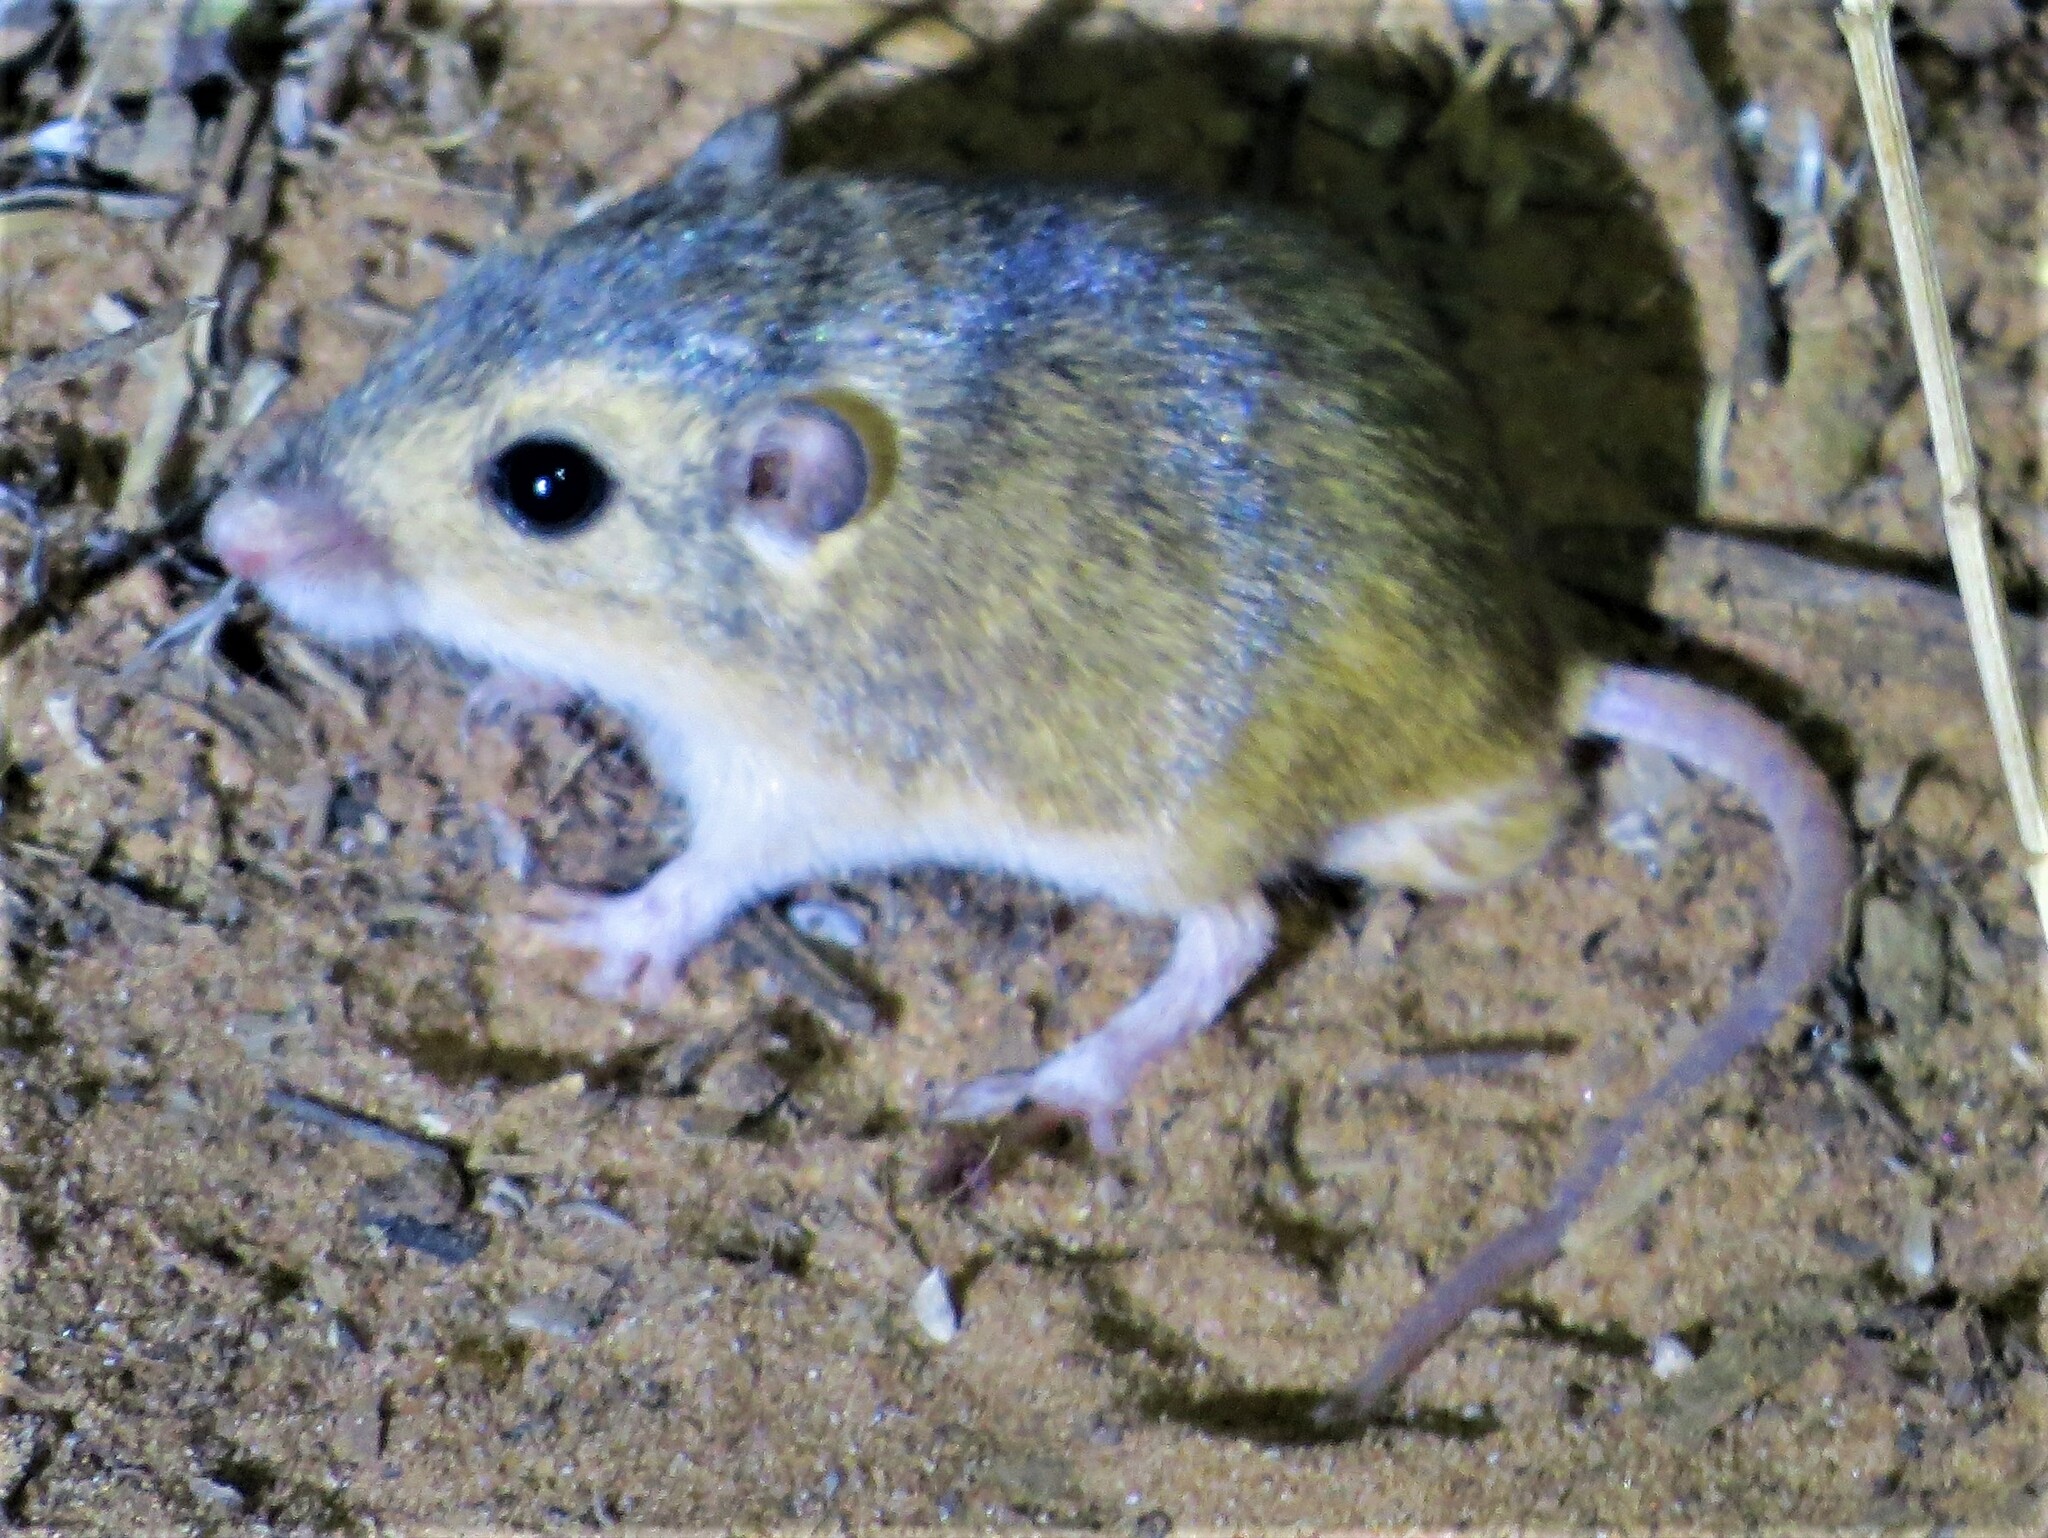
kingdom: Animalia
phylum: Chordata
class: Mammalia
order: Rodentia
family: Heteromyidae
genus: Perognathus
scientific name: Perognathus merriami
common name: Merriam's pocket mouse
